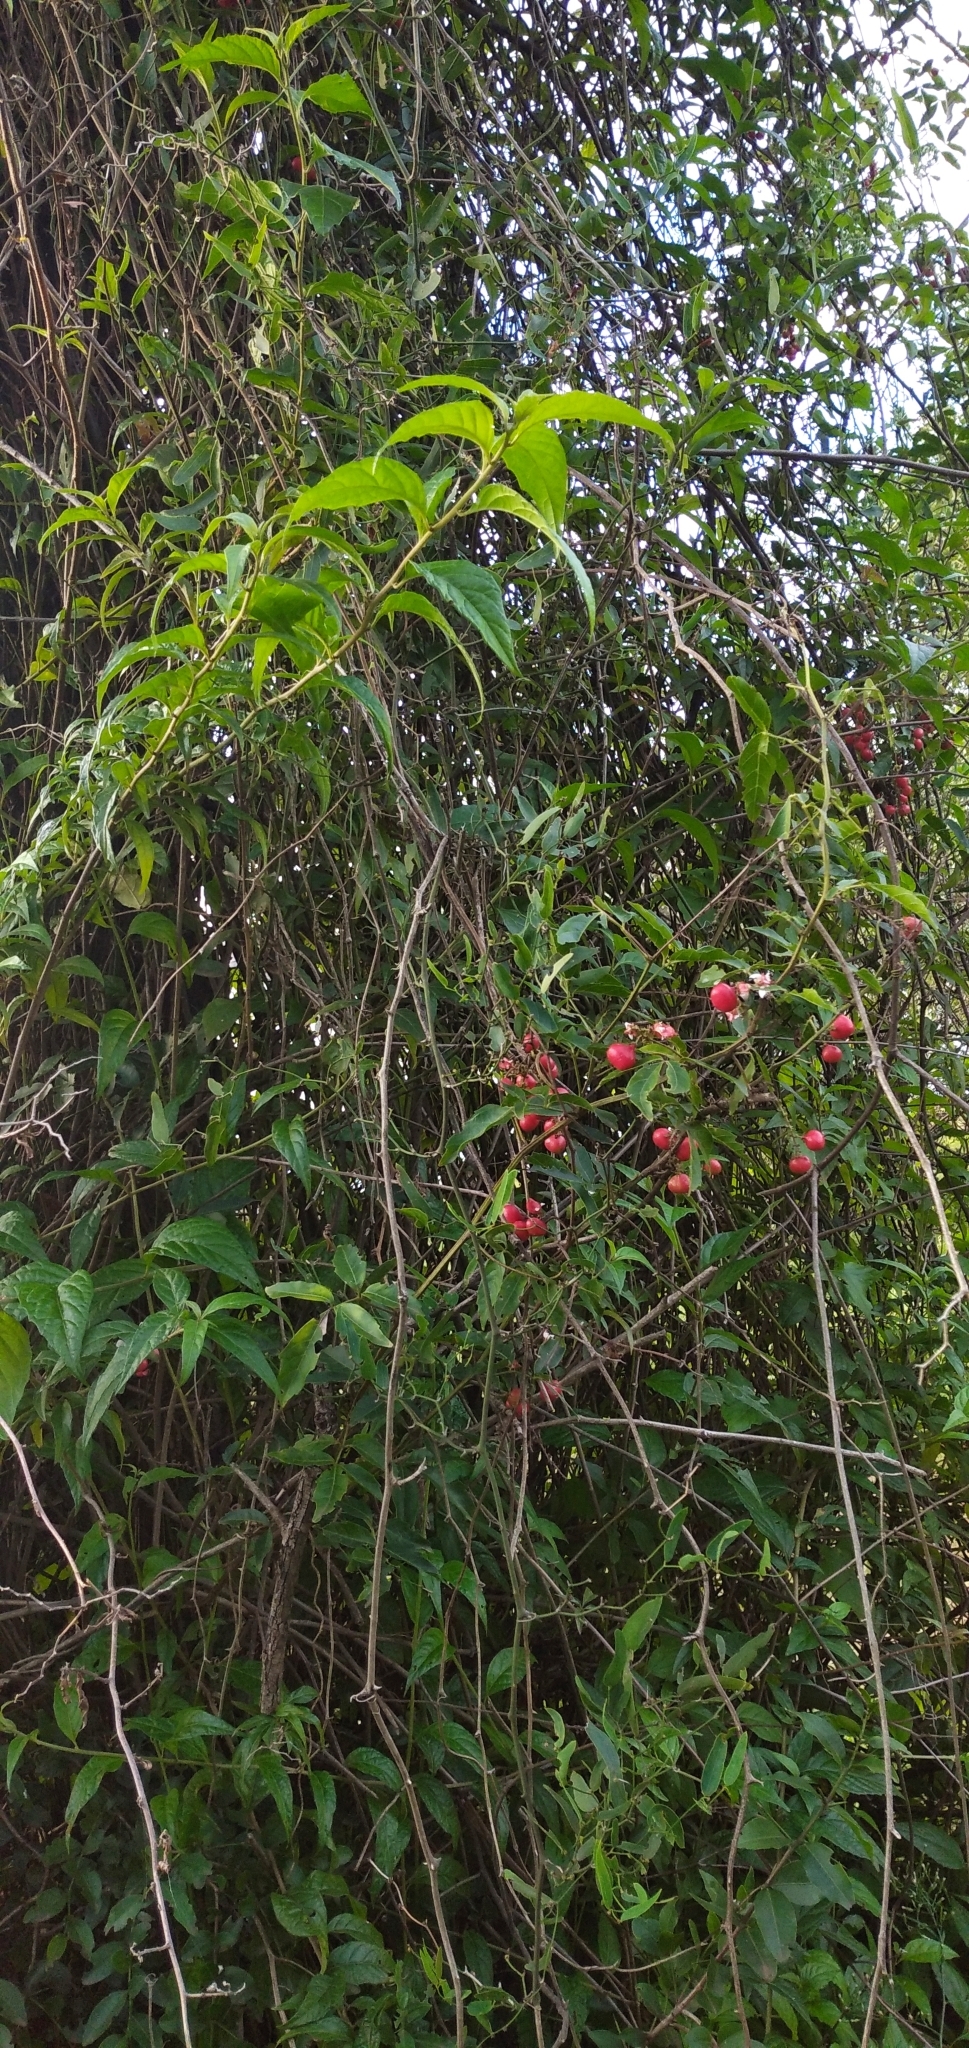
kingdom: Plantae
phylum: Tracheophyta
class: Magnoliopsida
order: Sapindales
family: Sapindaceae
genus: Paullinia
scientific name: Paullinia elegans
